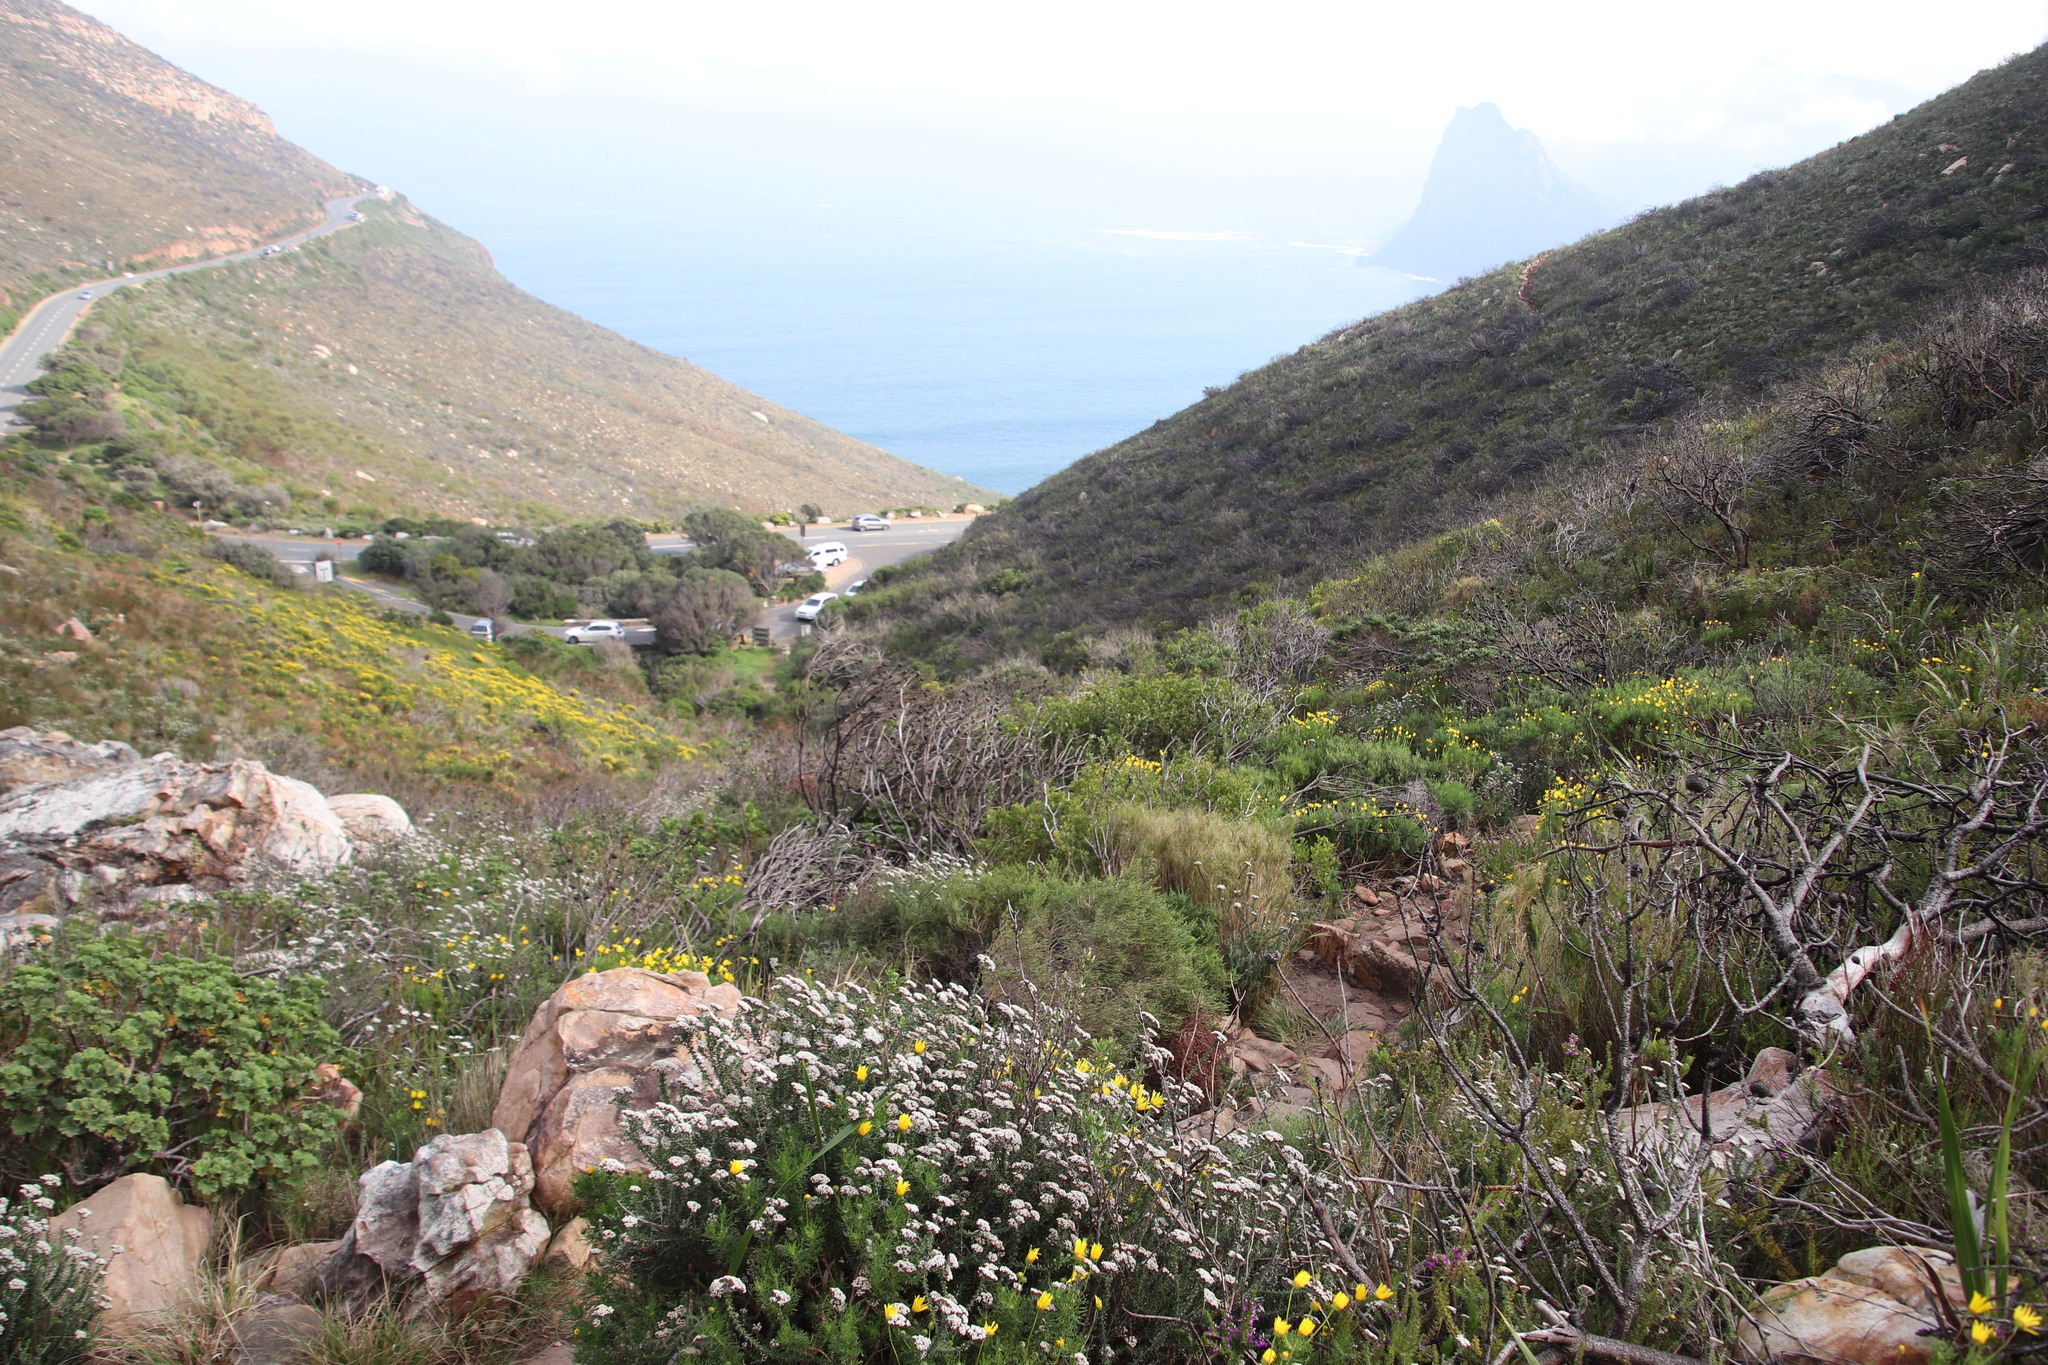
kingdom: Plantae
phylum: Tracheophyta
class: Magnoliopsida
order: Asterales
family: Asteraceae
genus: Metalasia
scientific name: Metalasia densa
